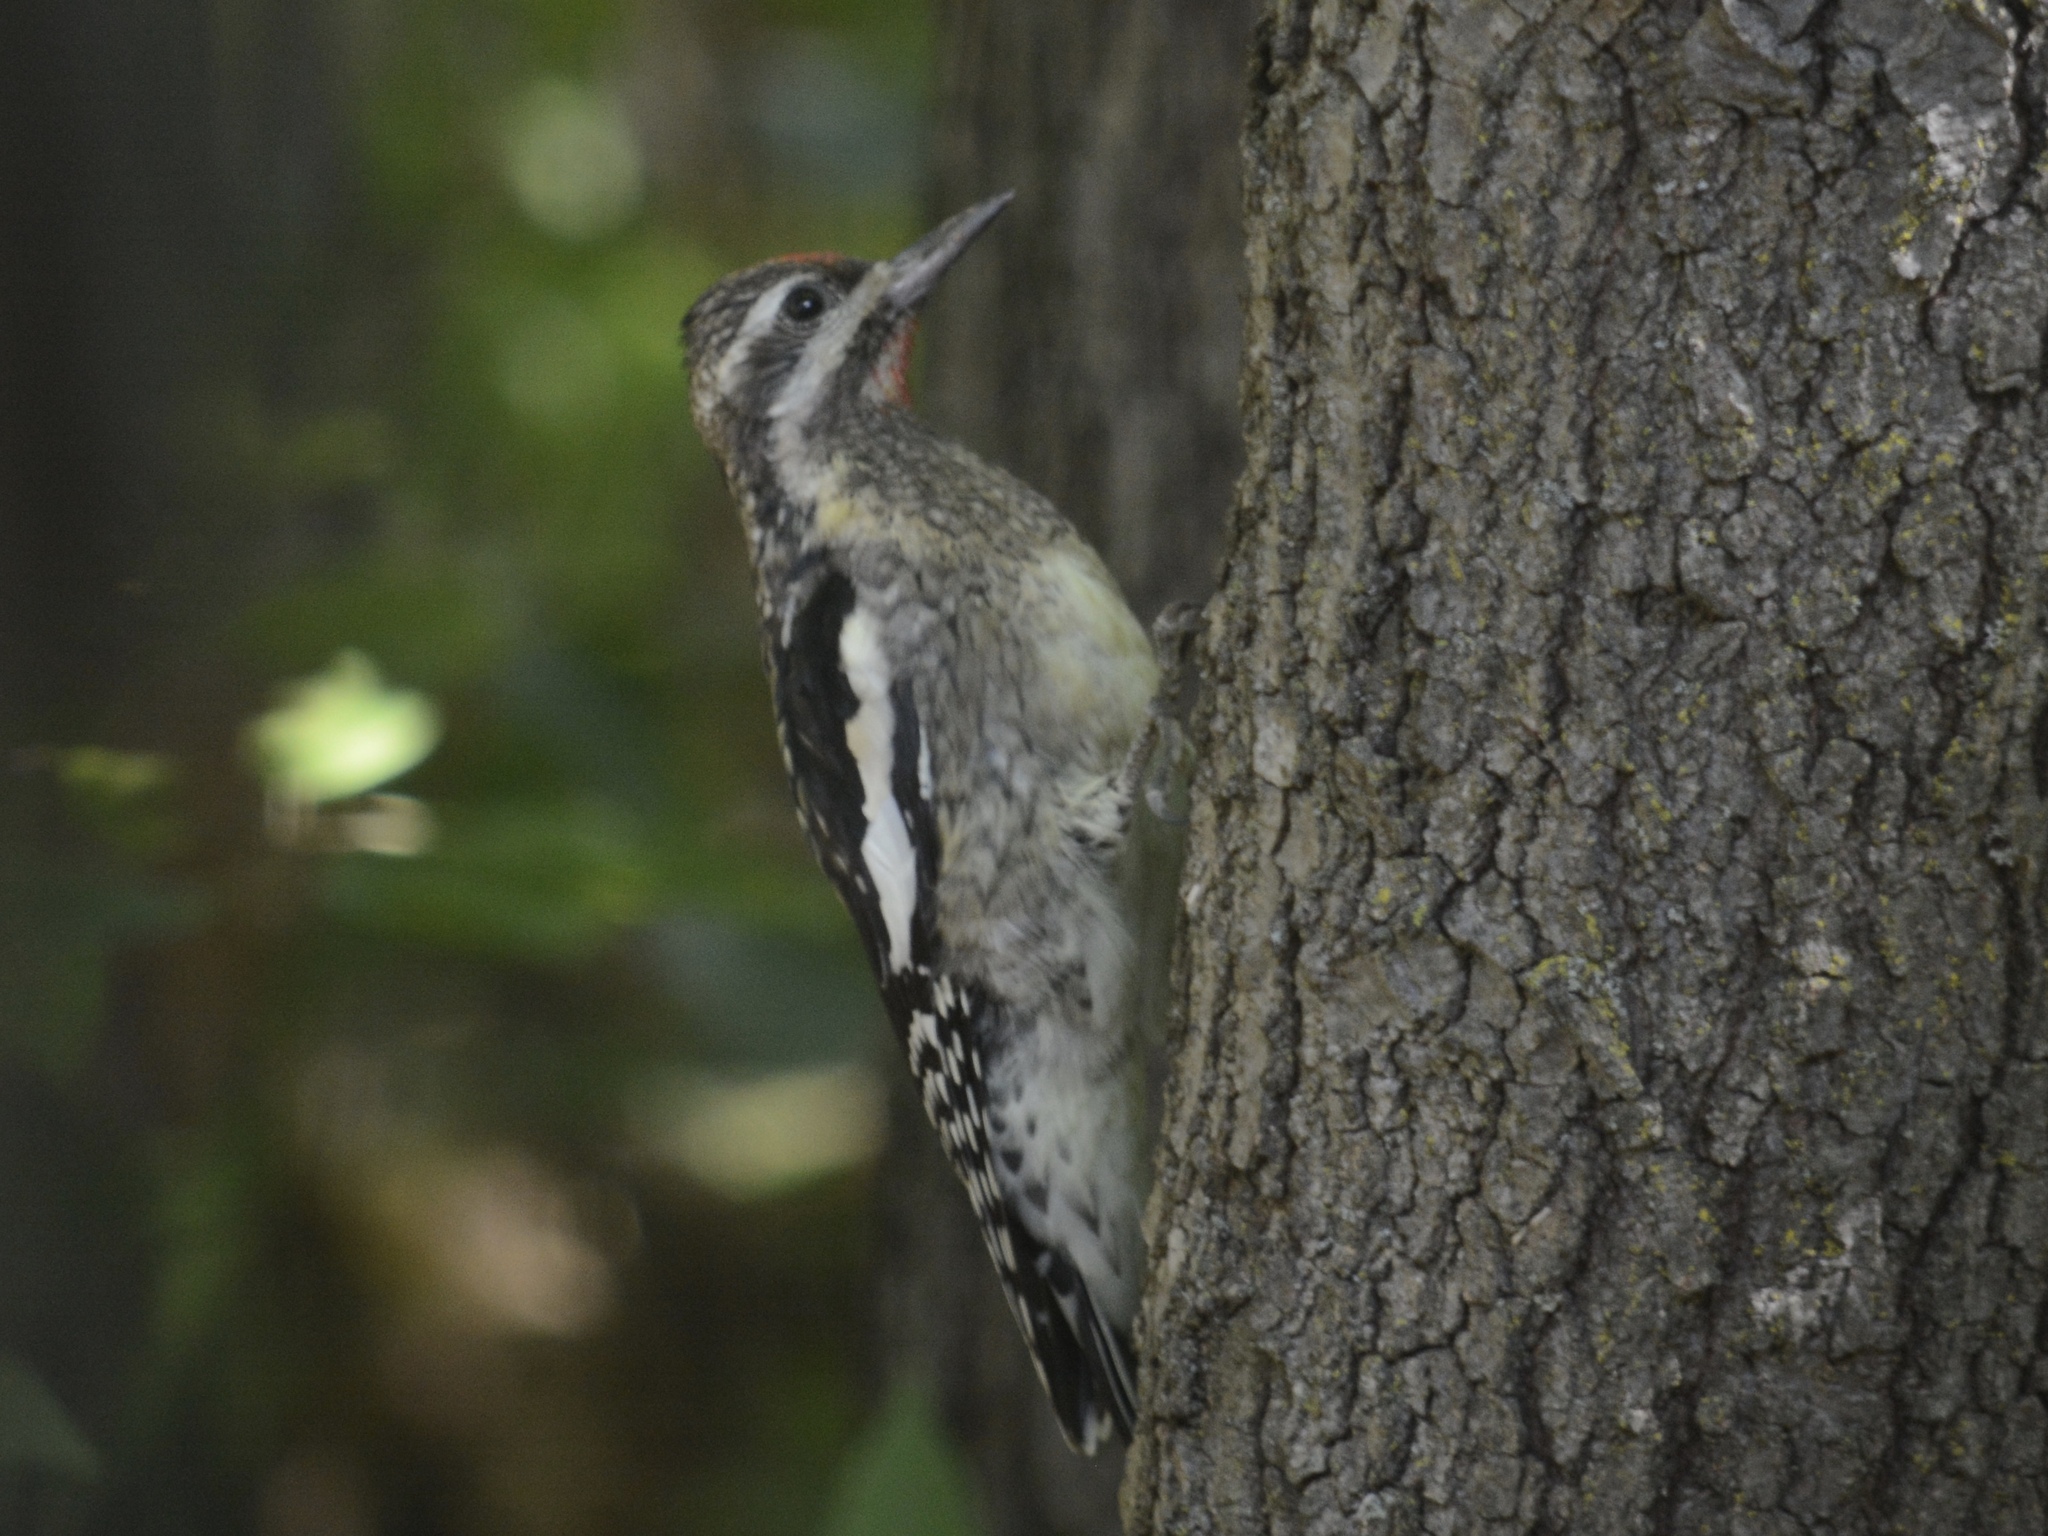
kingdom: Animalia
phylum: Chordata
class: Aves
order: Piciformes
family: Picidae
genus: Sphyrapicus
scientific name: Sphyrapicus varius
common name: Yellow-bellied sapsucker
